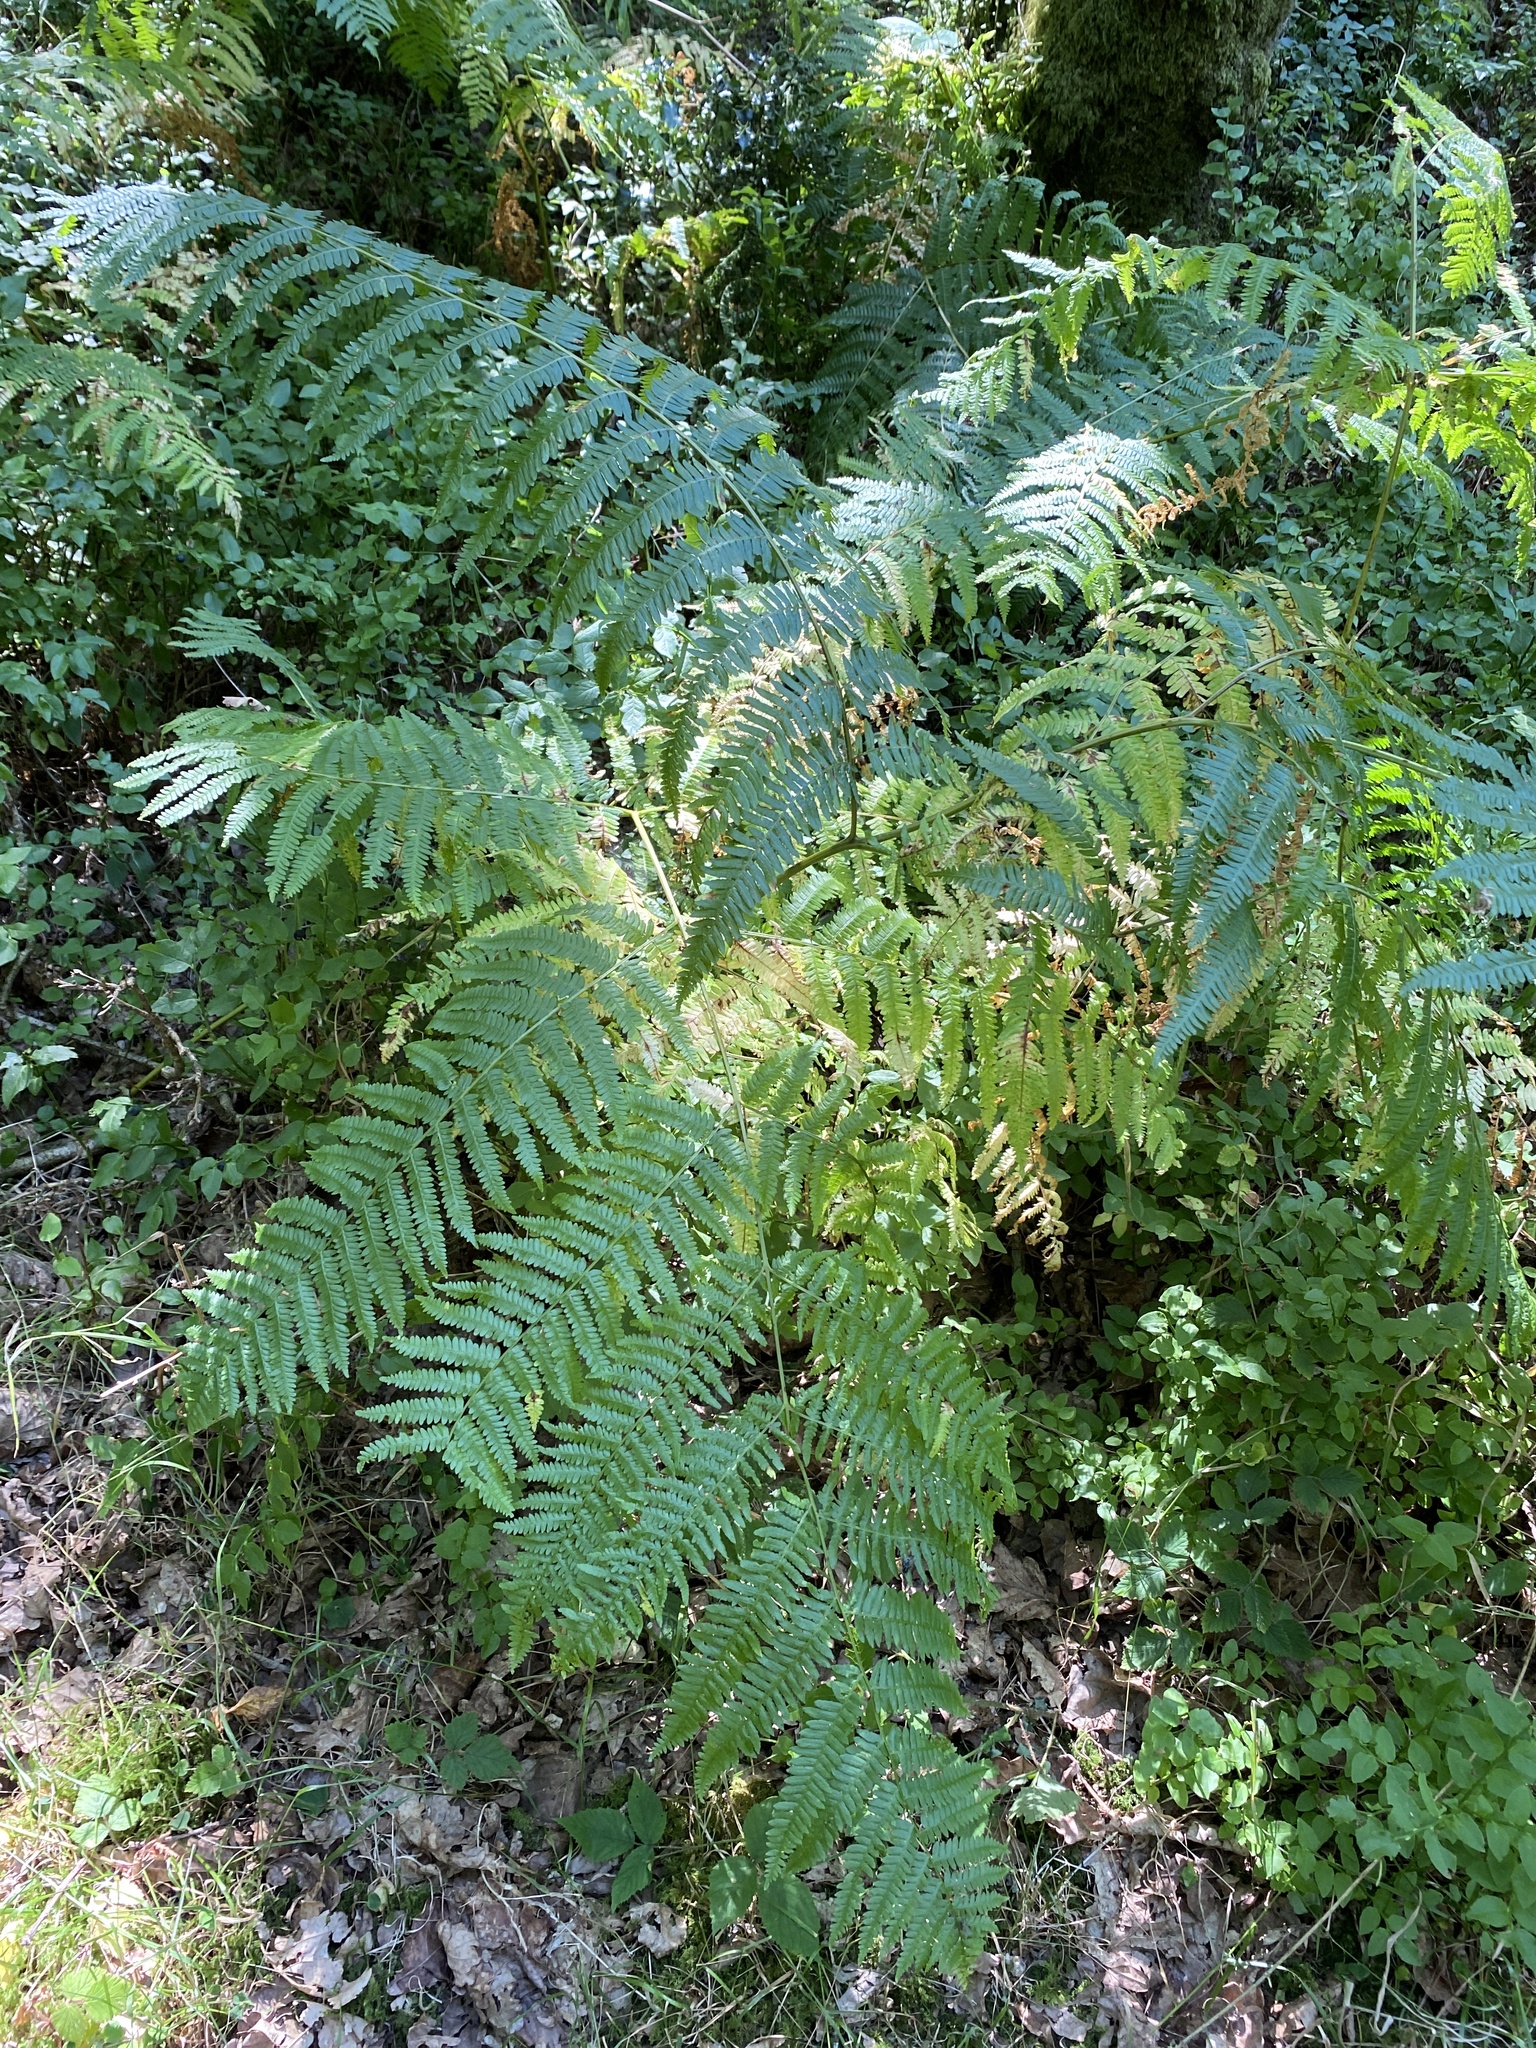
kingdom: Plantae
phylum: Tracheophyta
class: Polypodiopsida
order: Polypodiales
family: Dennstaedtiaceae
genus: Pteridium
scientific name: Pteridium aquilinum
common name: Bracken
